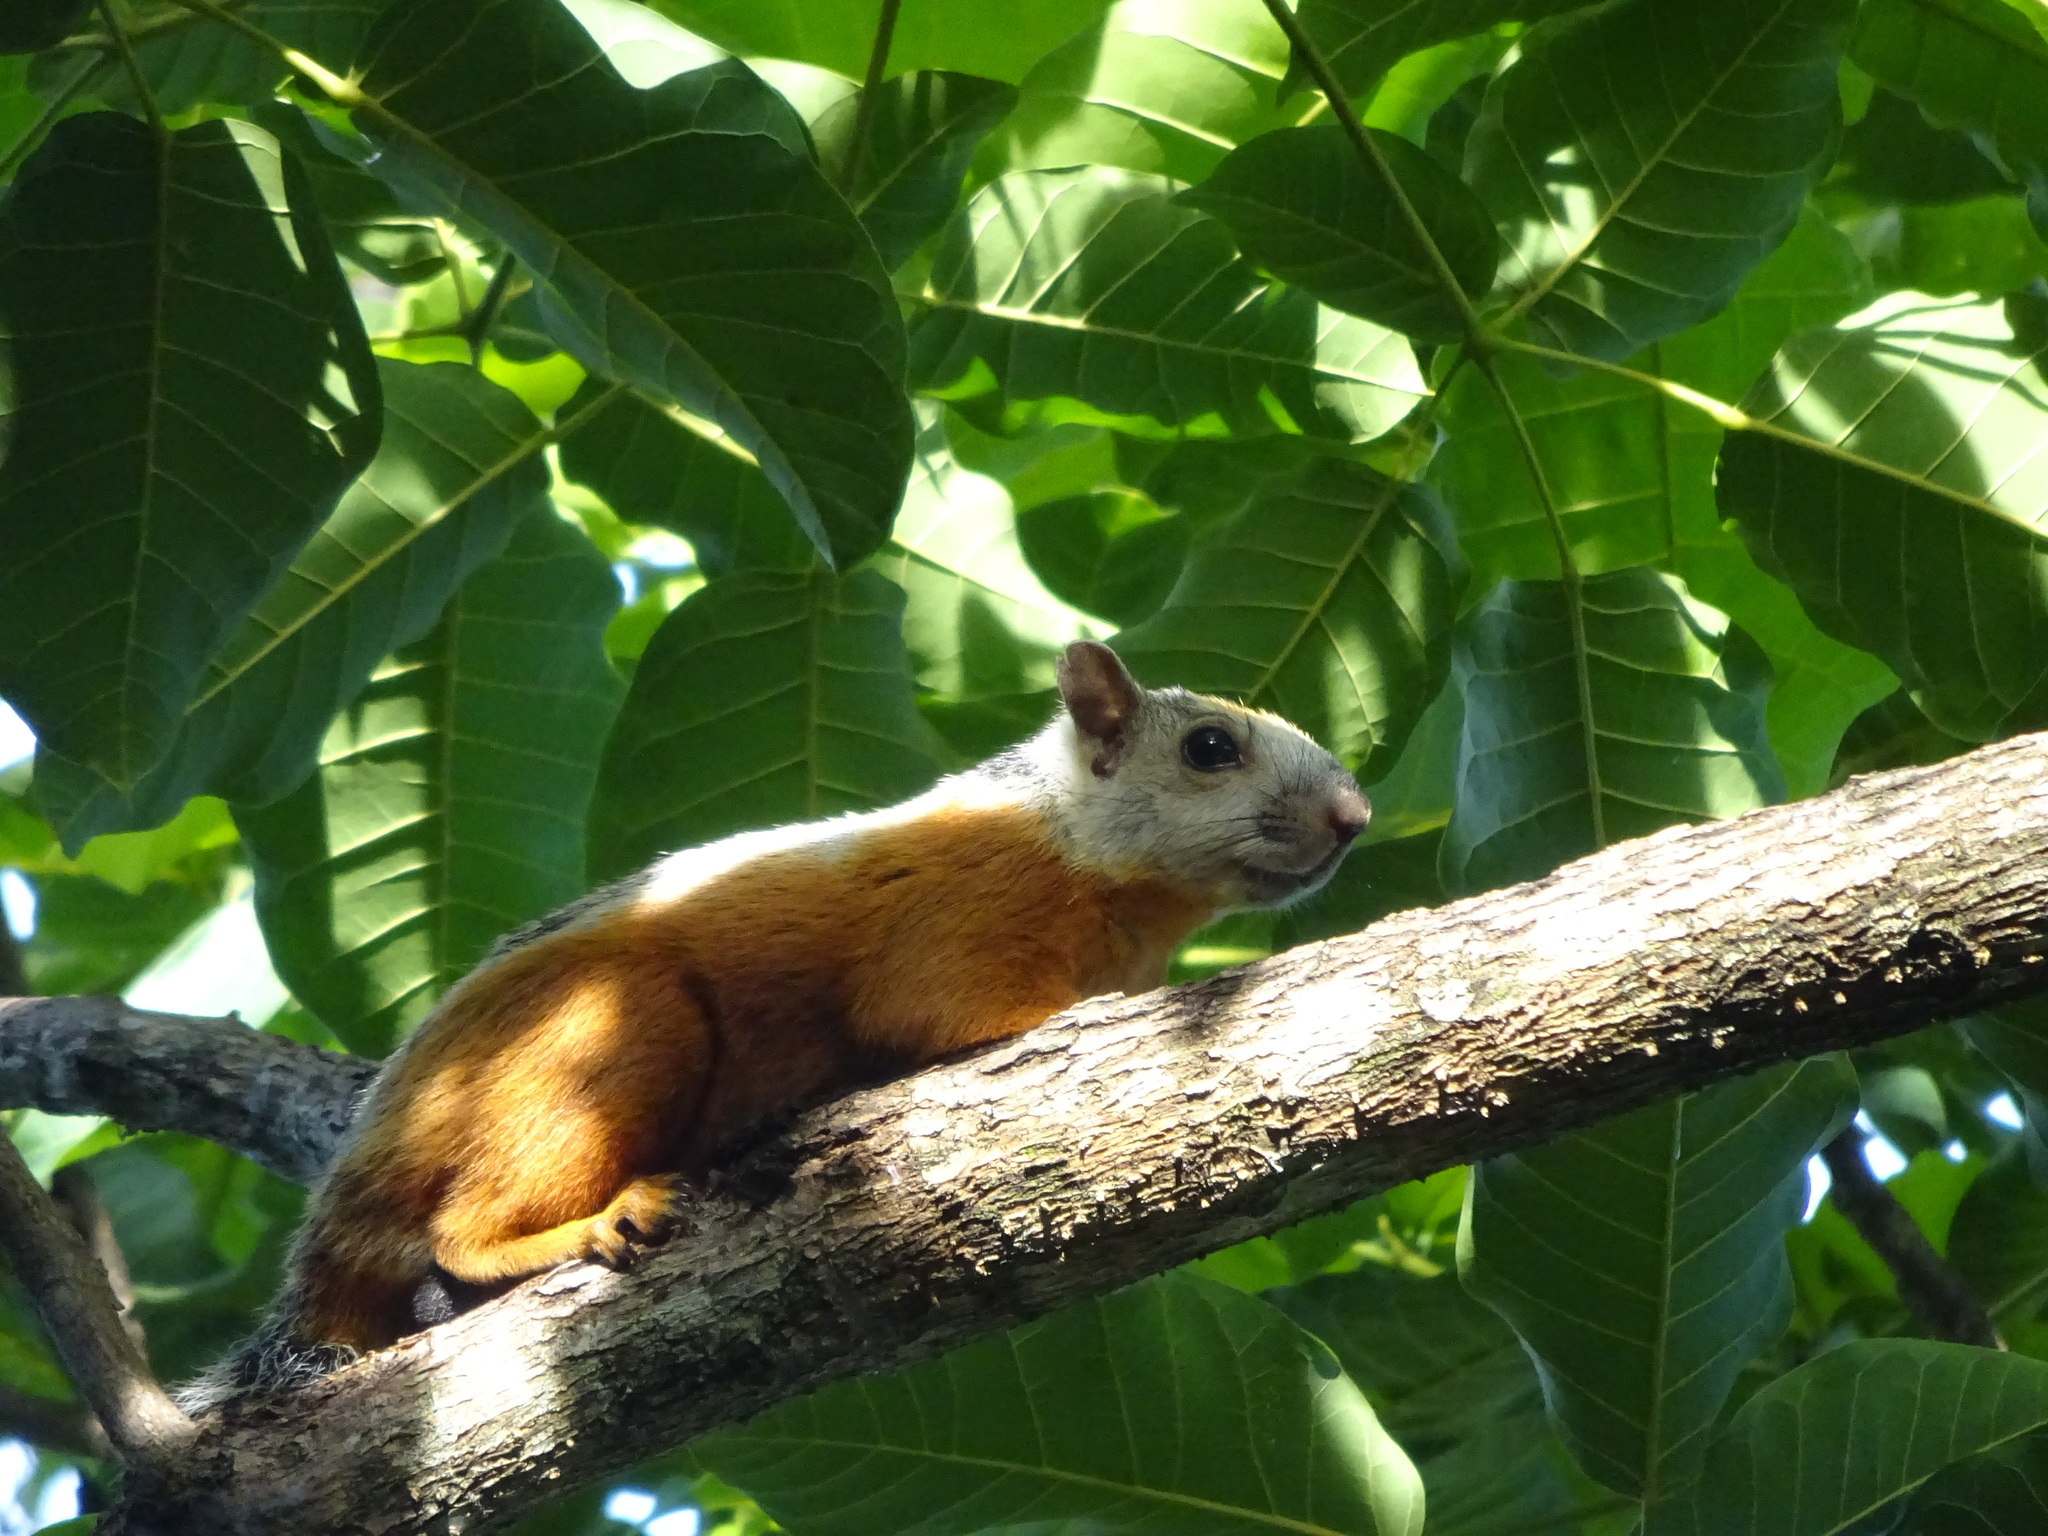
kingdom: Animalia
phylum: Chordata
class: Mammalia
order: Rodentia
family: Sciuridae
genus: Sciurus
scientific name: Sciurus variegatoides
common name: Variegated squirrel
